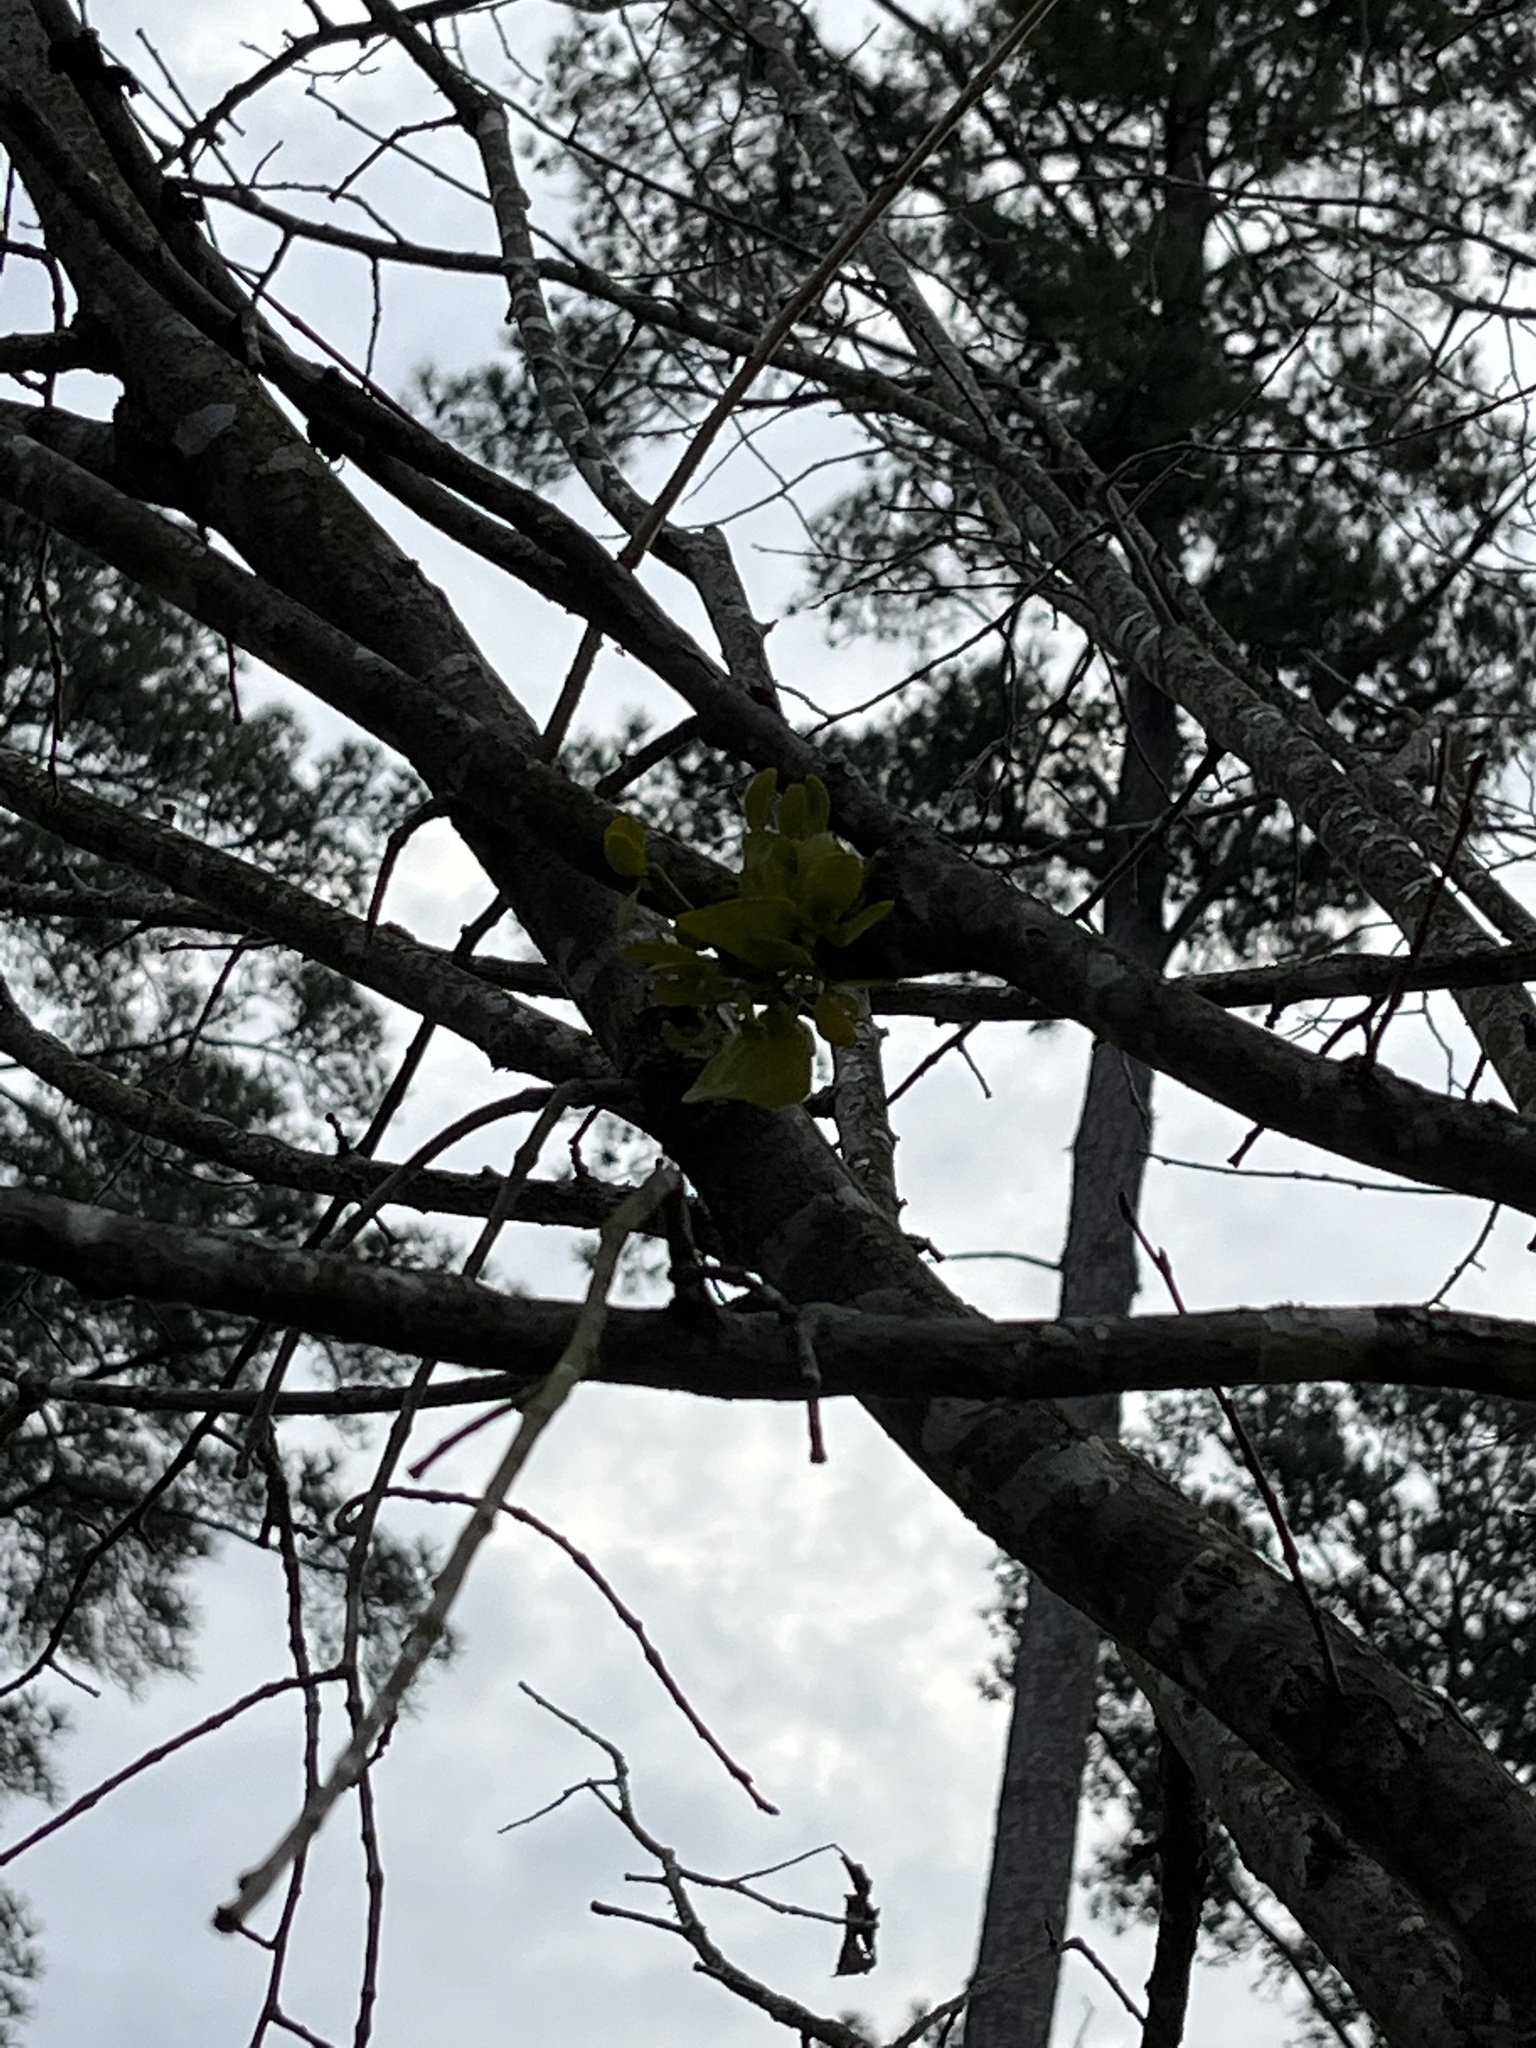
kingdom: Plantae
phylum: Tracheophyta
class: Magnoliopsida
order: Santalales
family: Viscaceae
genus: Phoradendron
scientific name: Phoradendron leucarpum
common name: Pacific mistletoe
